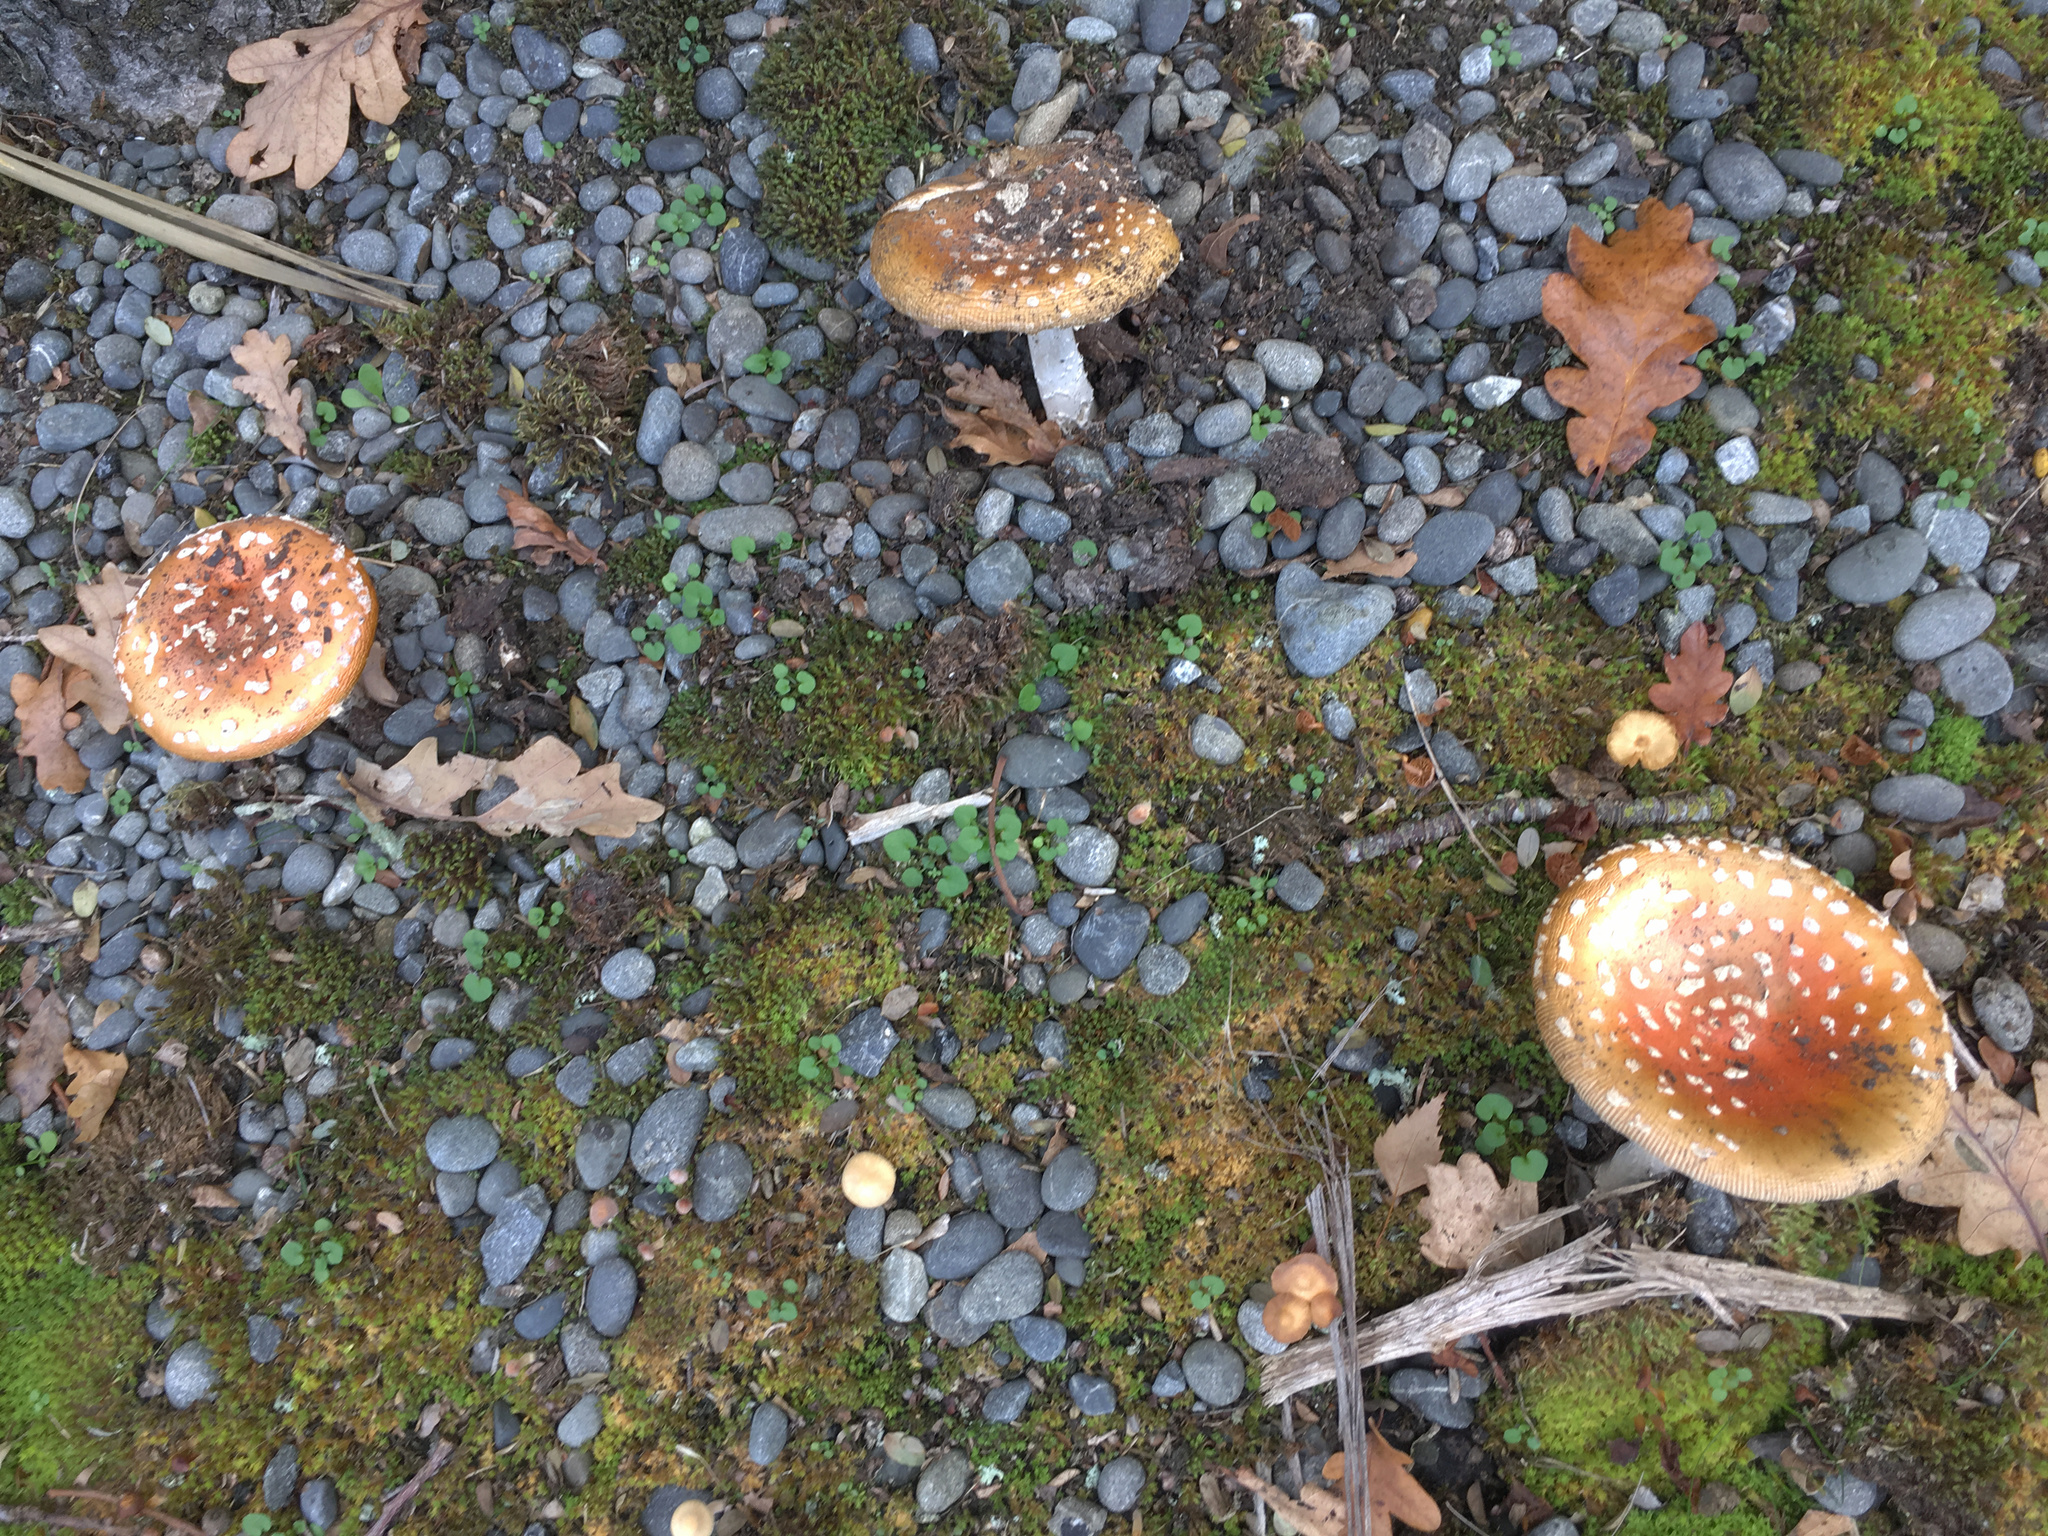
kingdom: Fungi
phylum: Basidiomycota
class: Agaricomycetes
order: Agaricales
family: Amanitaceae
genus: Amanita
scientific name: Amanita muscaria
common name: Fly agaric
